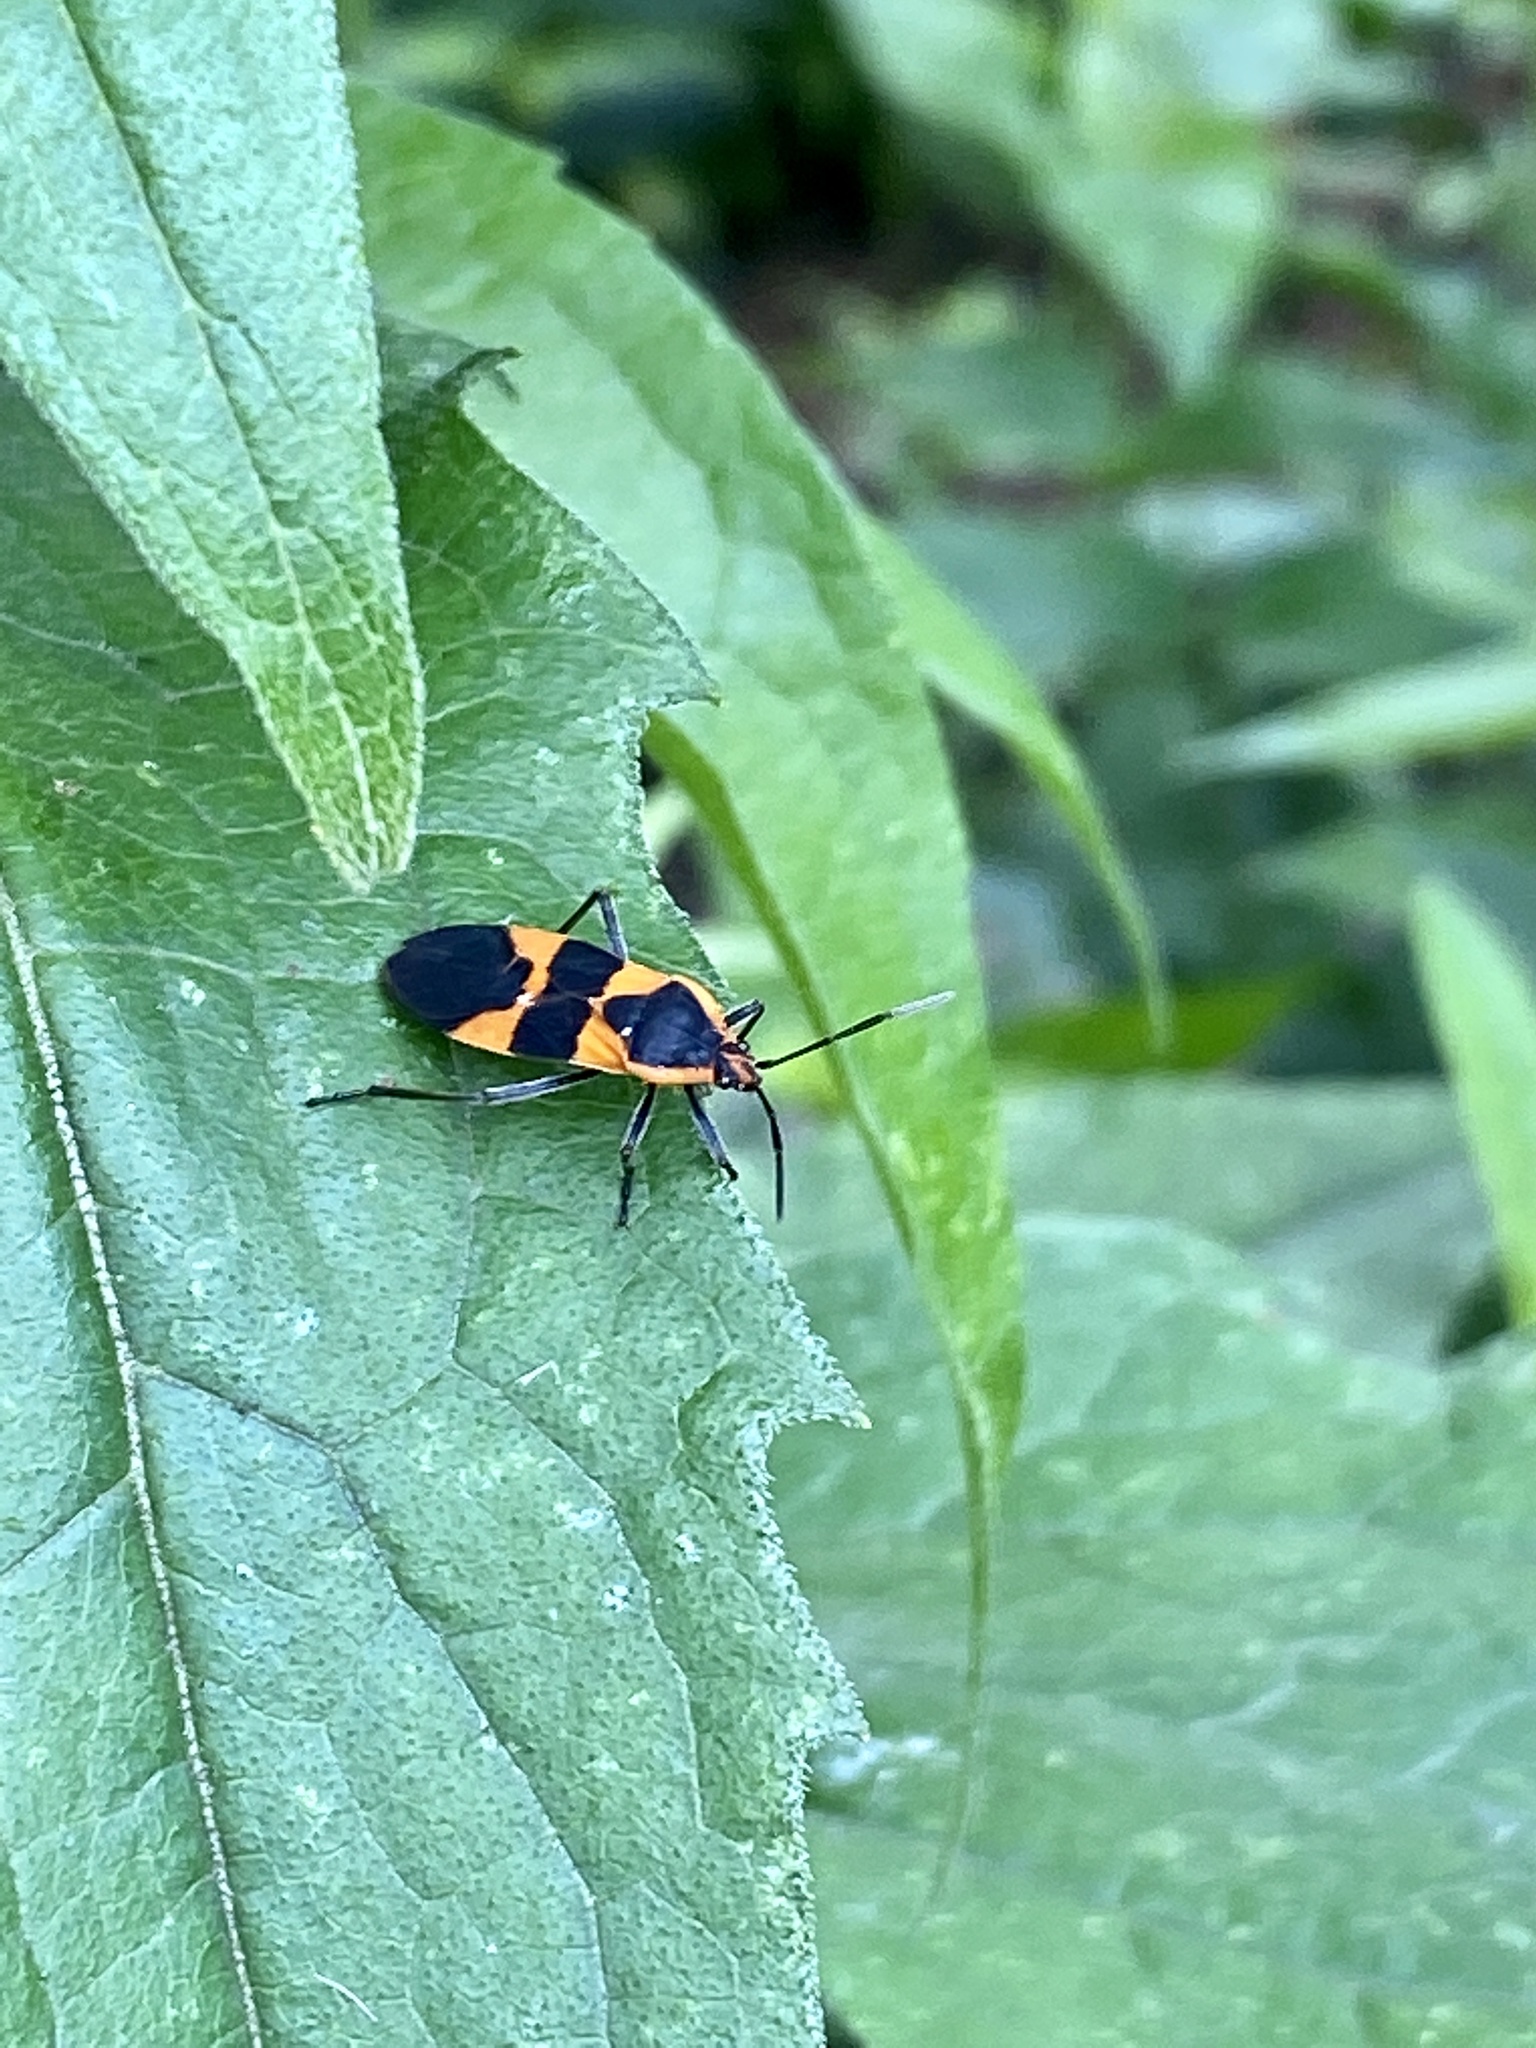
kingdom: Animalia
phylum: Arthropoda
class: Insecta
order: Hemiptera
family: Lygaeidae
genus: Oncopeltus
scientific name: Oncopeltus fasciatus
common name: Large milkweed bug
